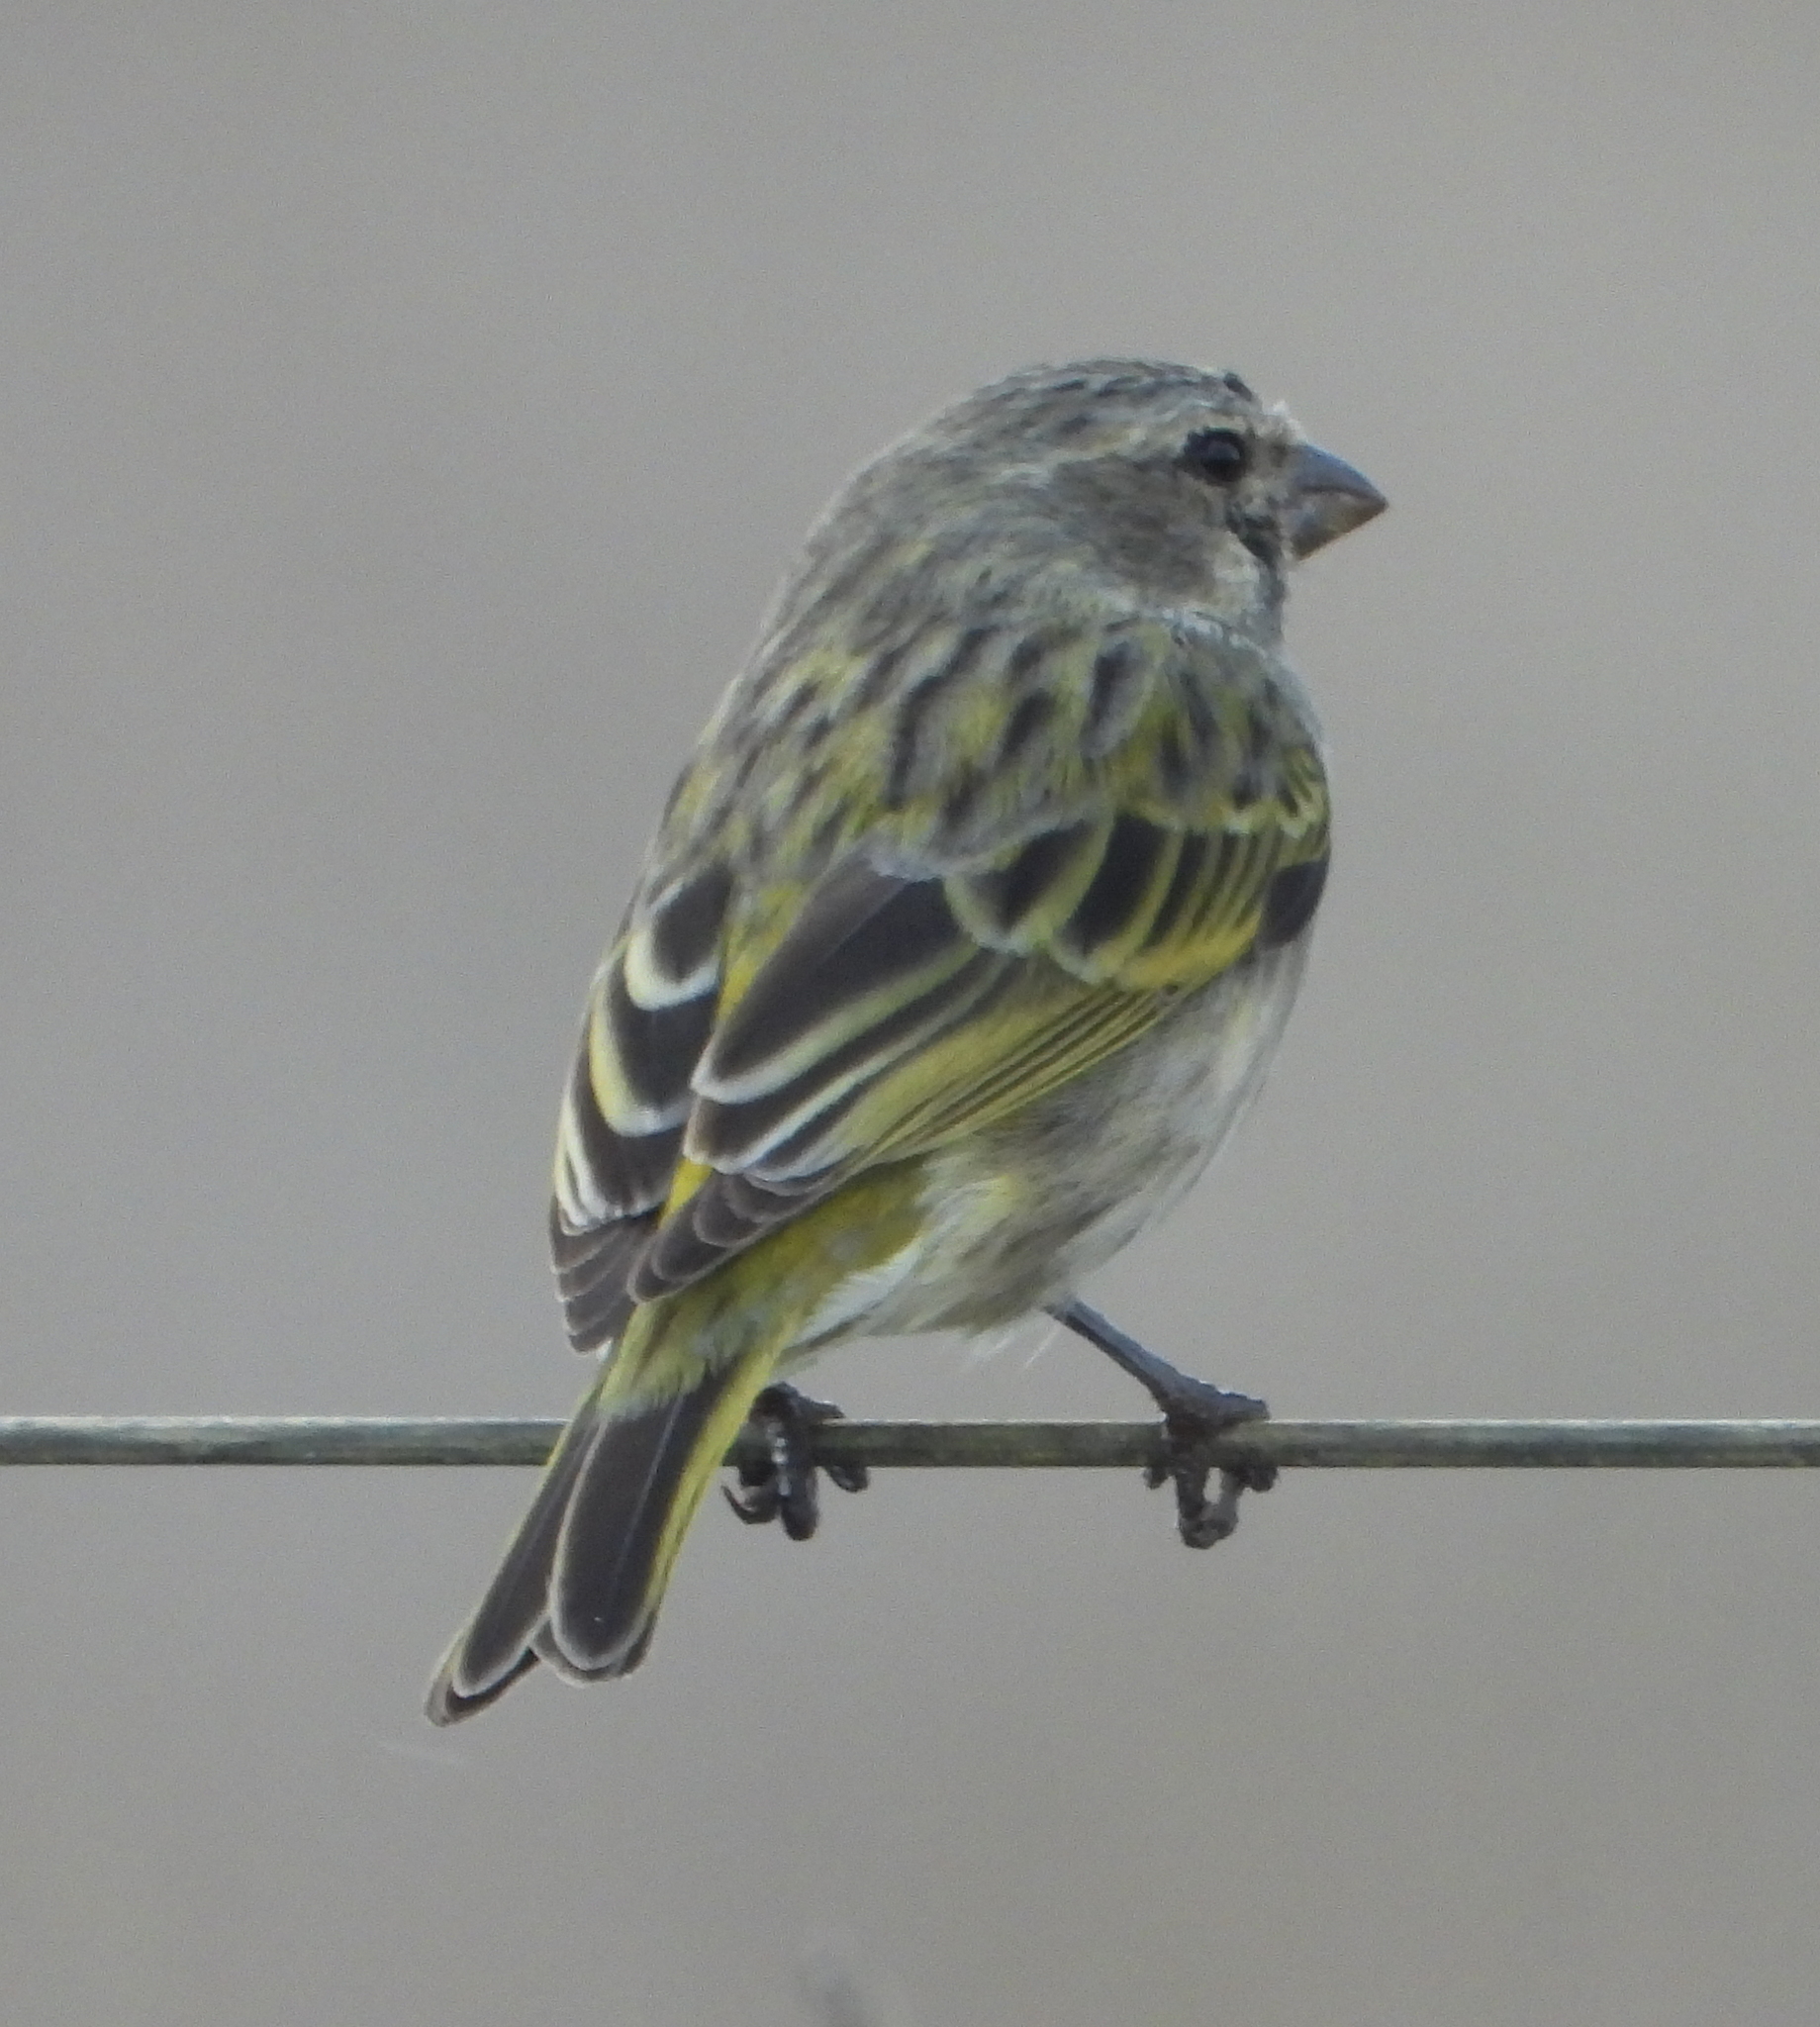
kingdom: Animalia
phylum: Chordata
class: Aves
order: Passeriformes
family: Fringillidae
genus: Crithagra
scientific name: Crithagra flaviventris
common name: Yellow canary
